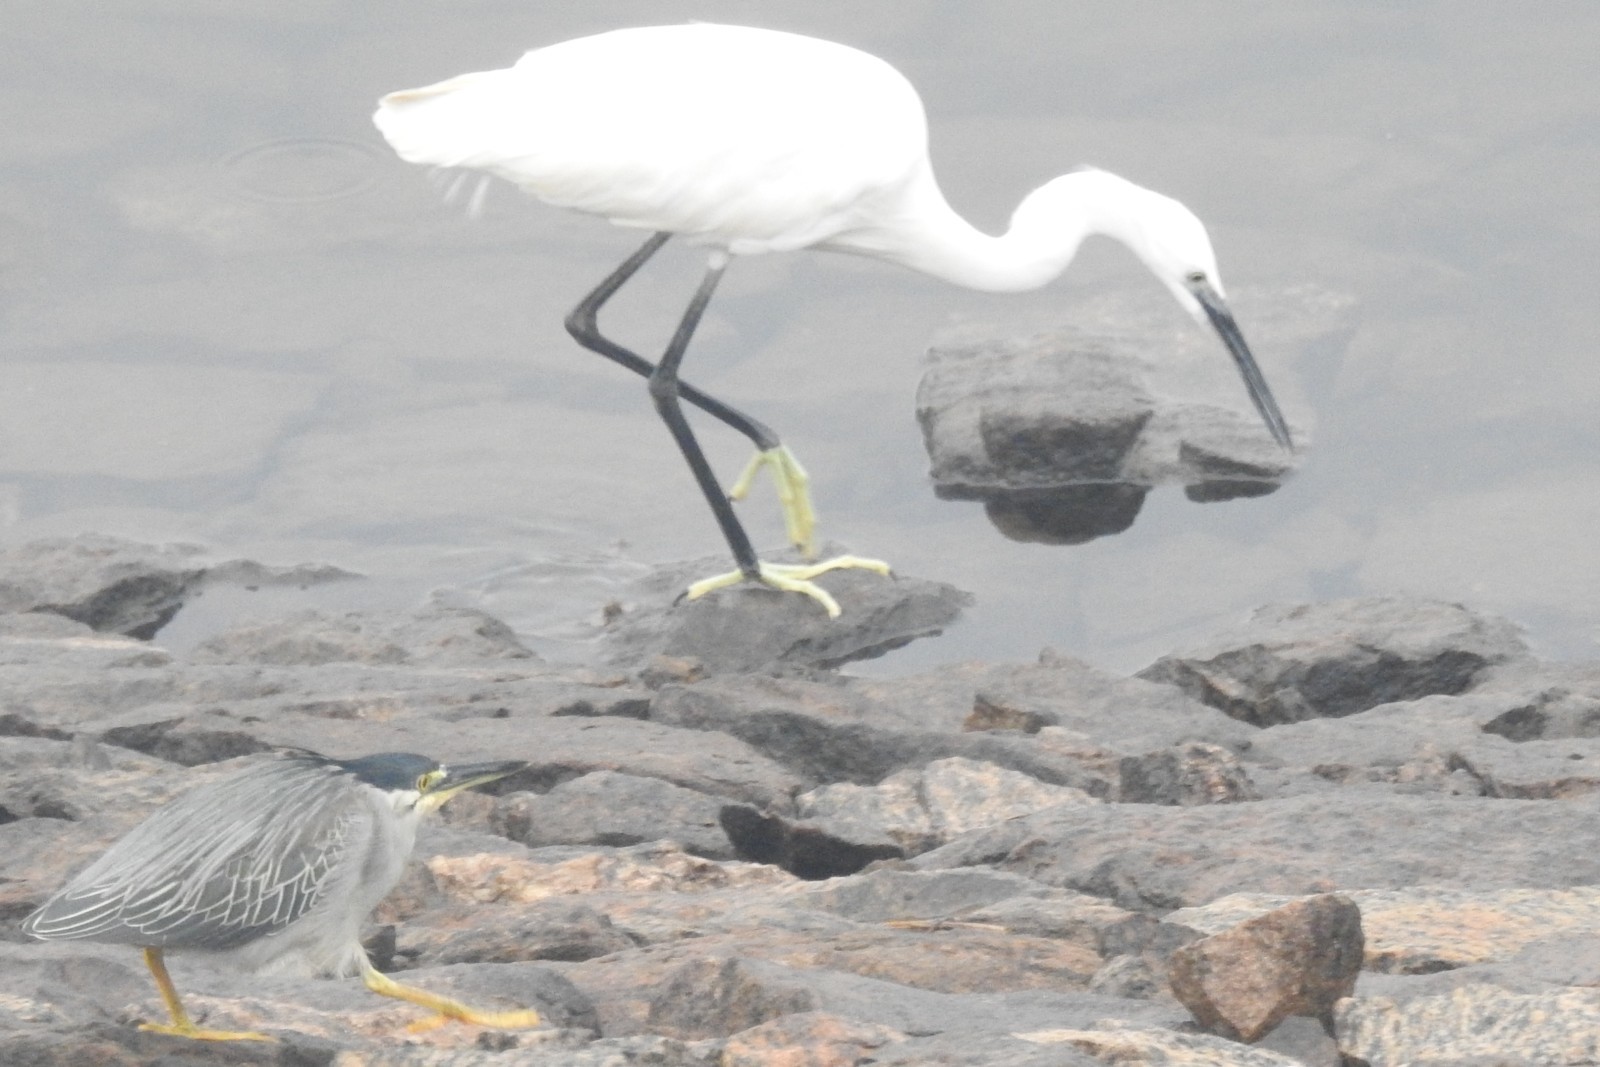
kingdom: Animalia
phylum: Chordata
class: Aves
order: Pelecaniformes
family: Ardeidae
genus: Egretta
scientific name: Egretta garzetta
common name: Little egret
